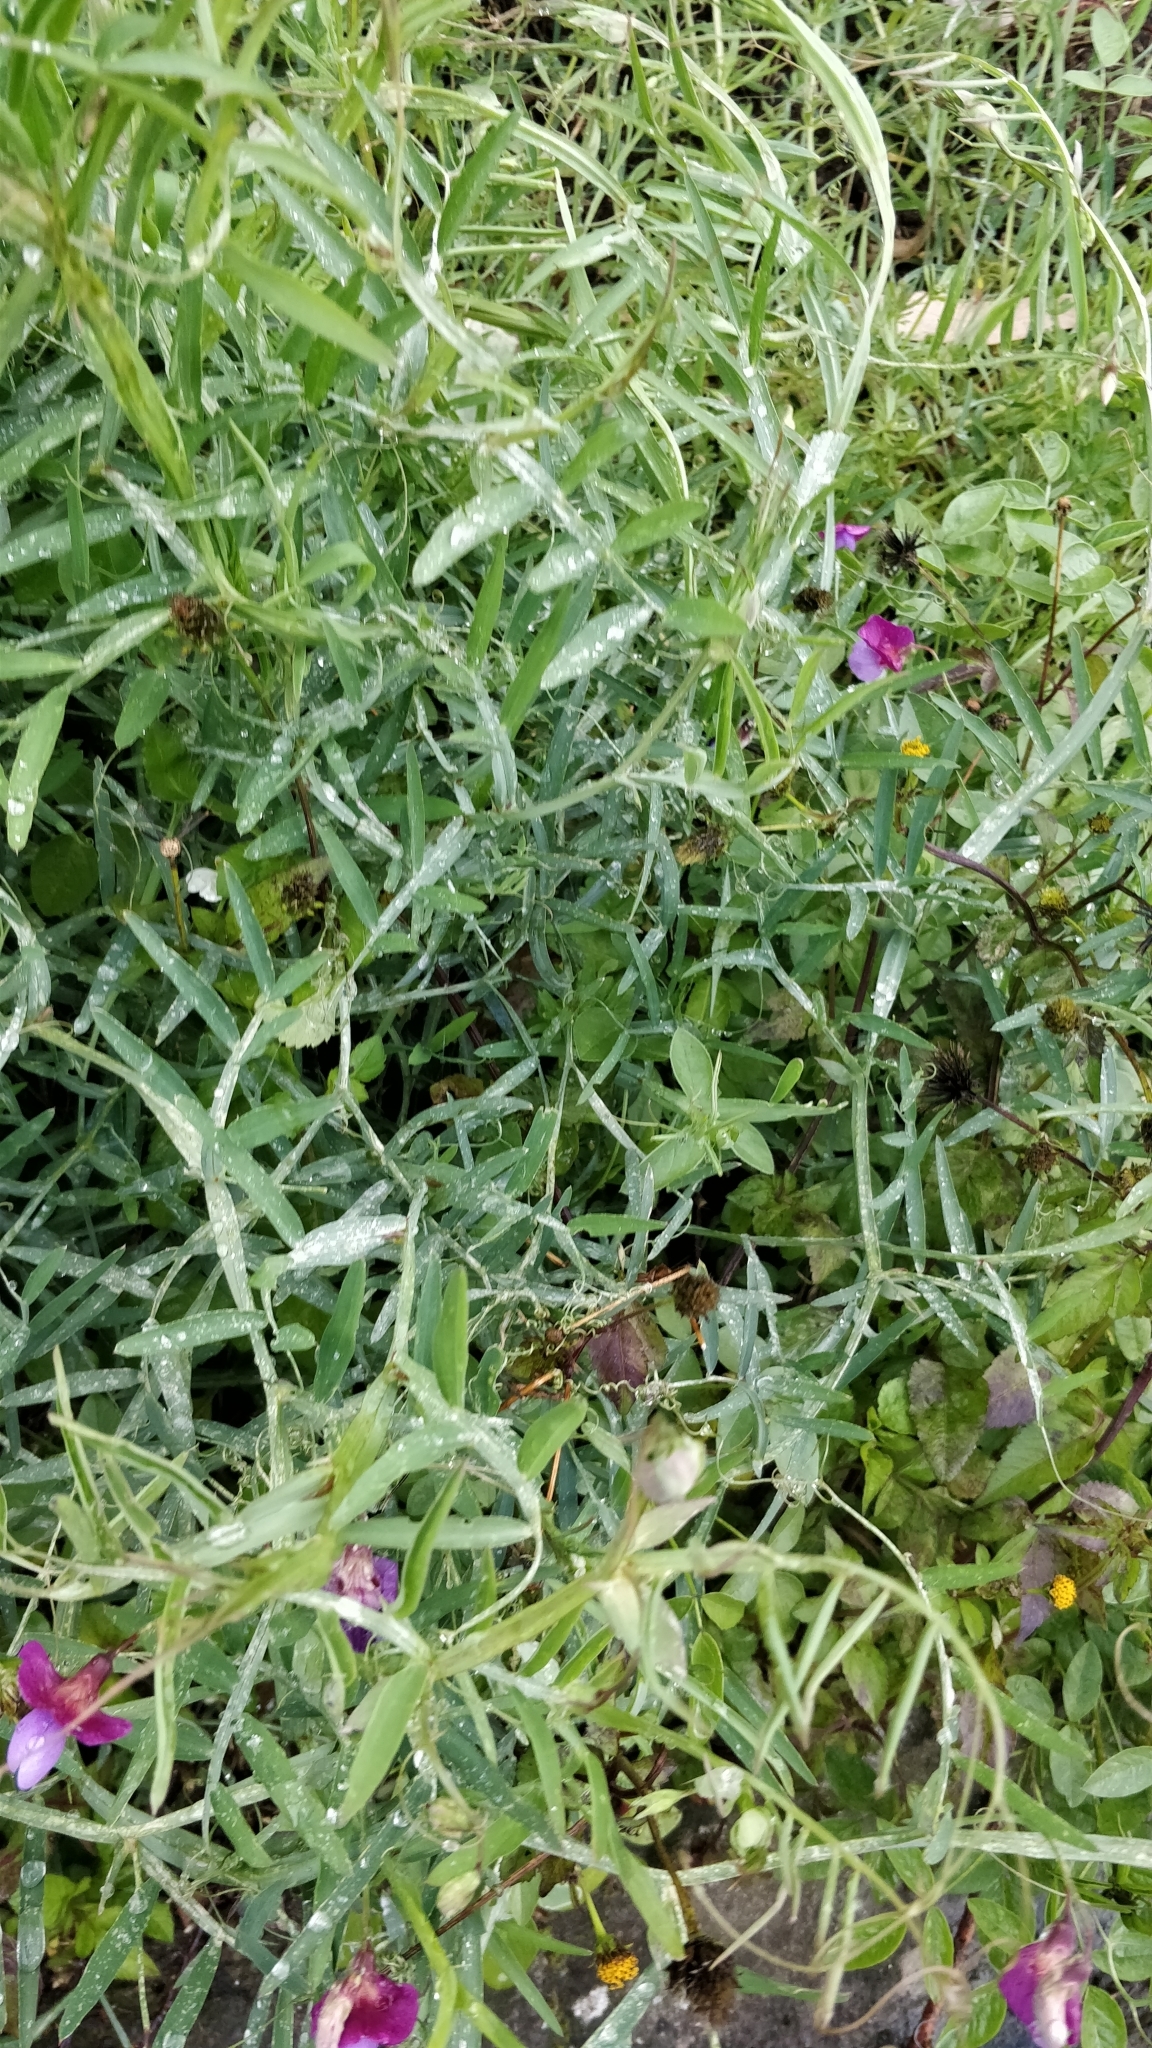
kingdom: Plantae
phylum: Tracheophyta
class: Magnoliopsida
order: Fabales
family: Fabaceae
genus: Lathyrus
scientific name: Lathyrus clymenum
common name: Spanish vetchling
